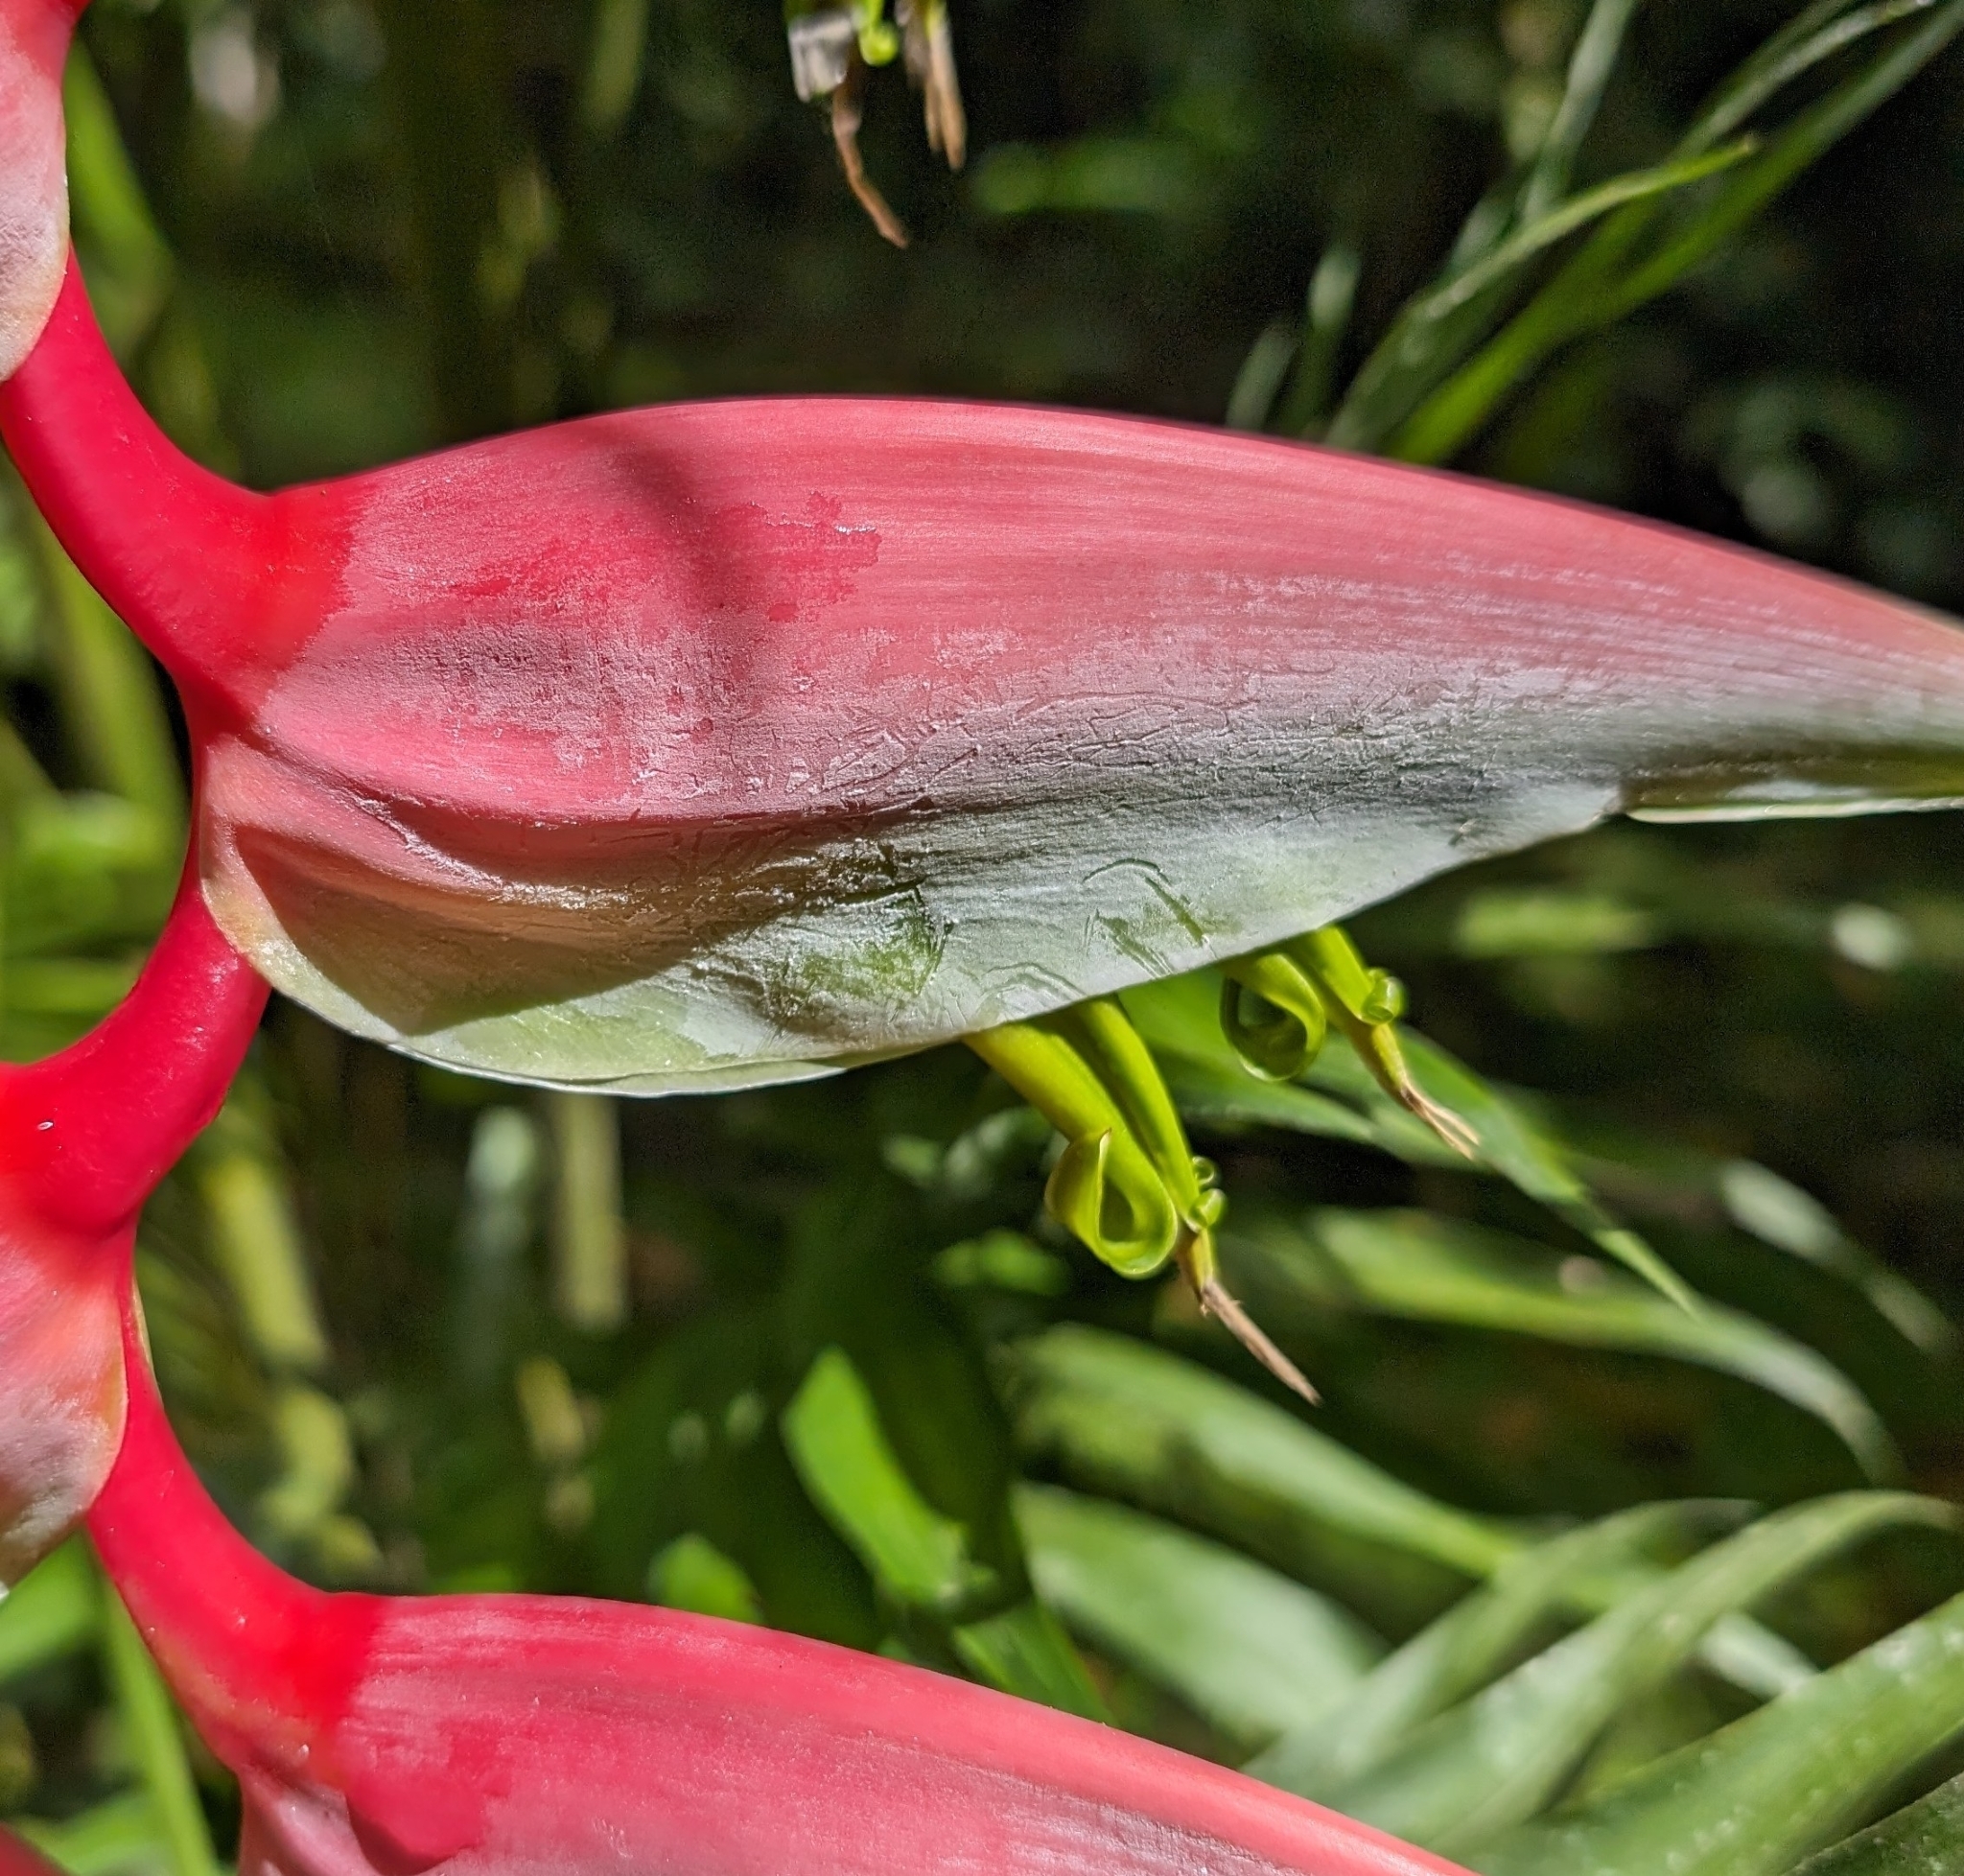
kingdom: Plantae
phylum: Tracheophyta
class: Liliopsida
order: Zingiberales
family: Heliconiaceae
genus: Heliconia
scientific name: Heliconia chartacea
